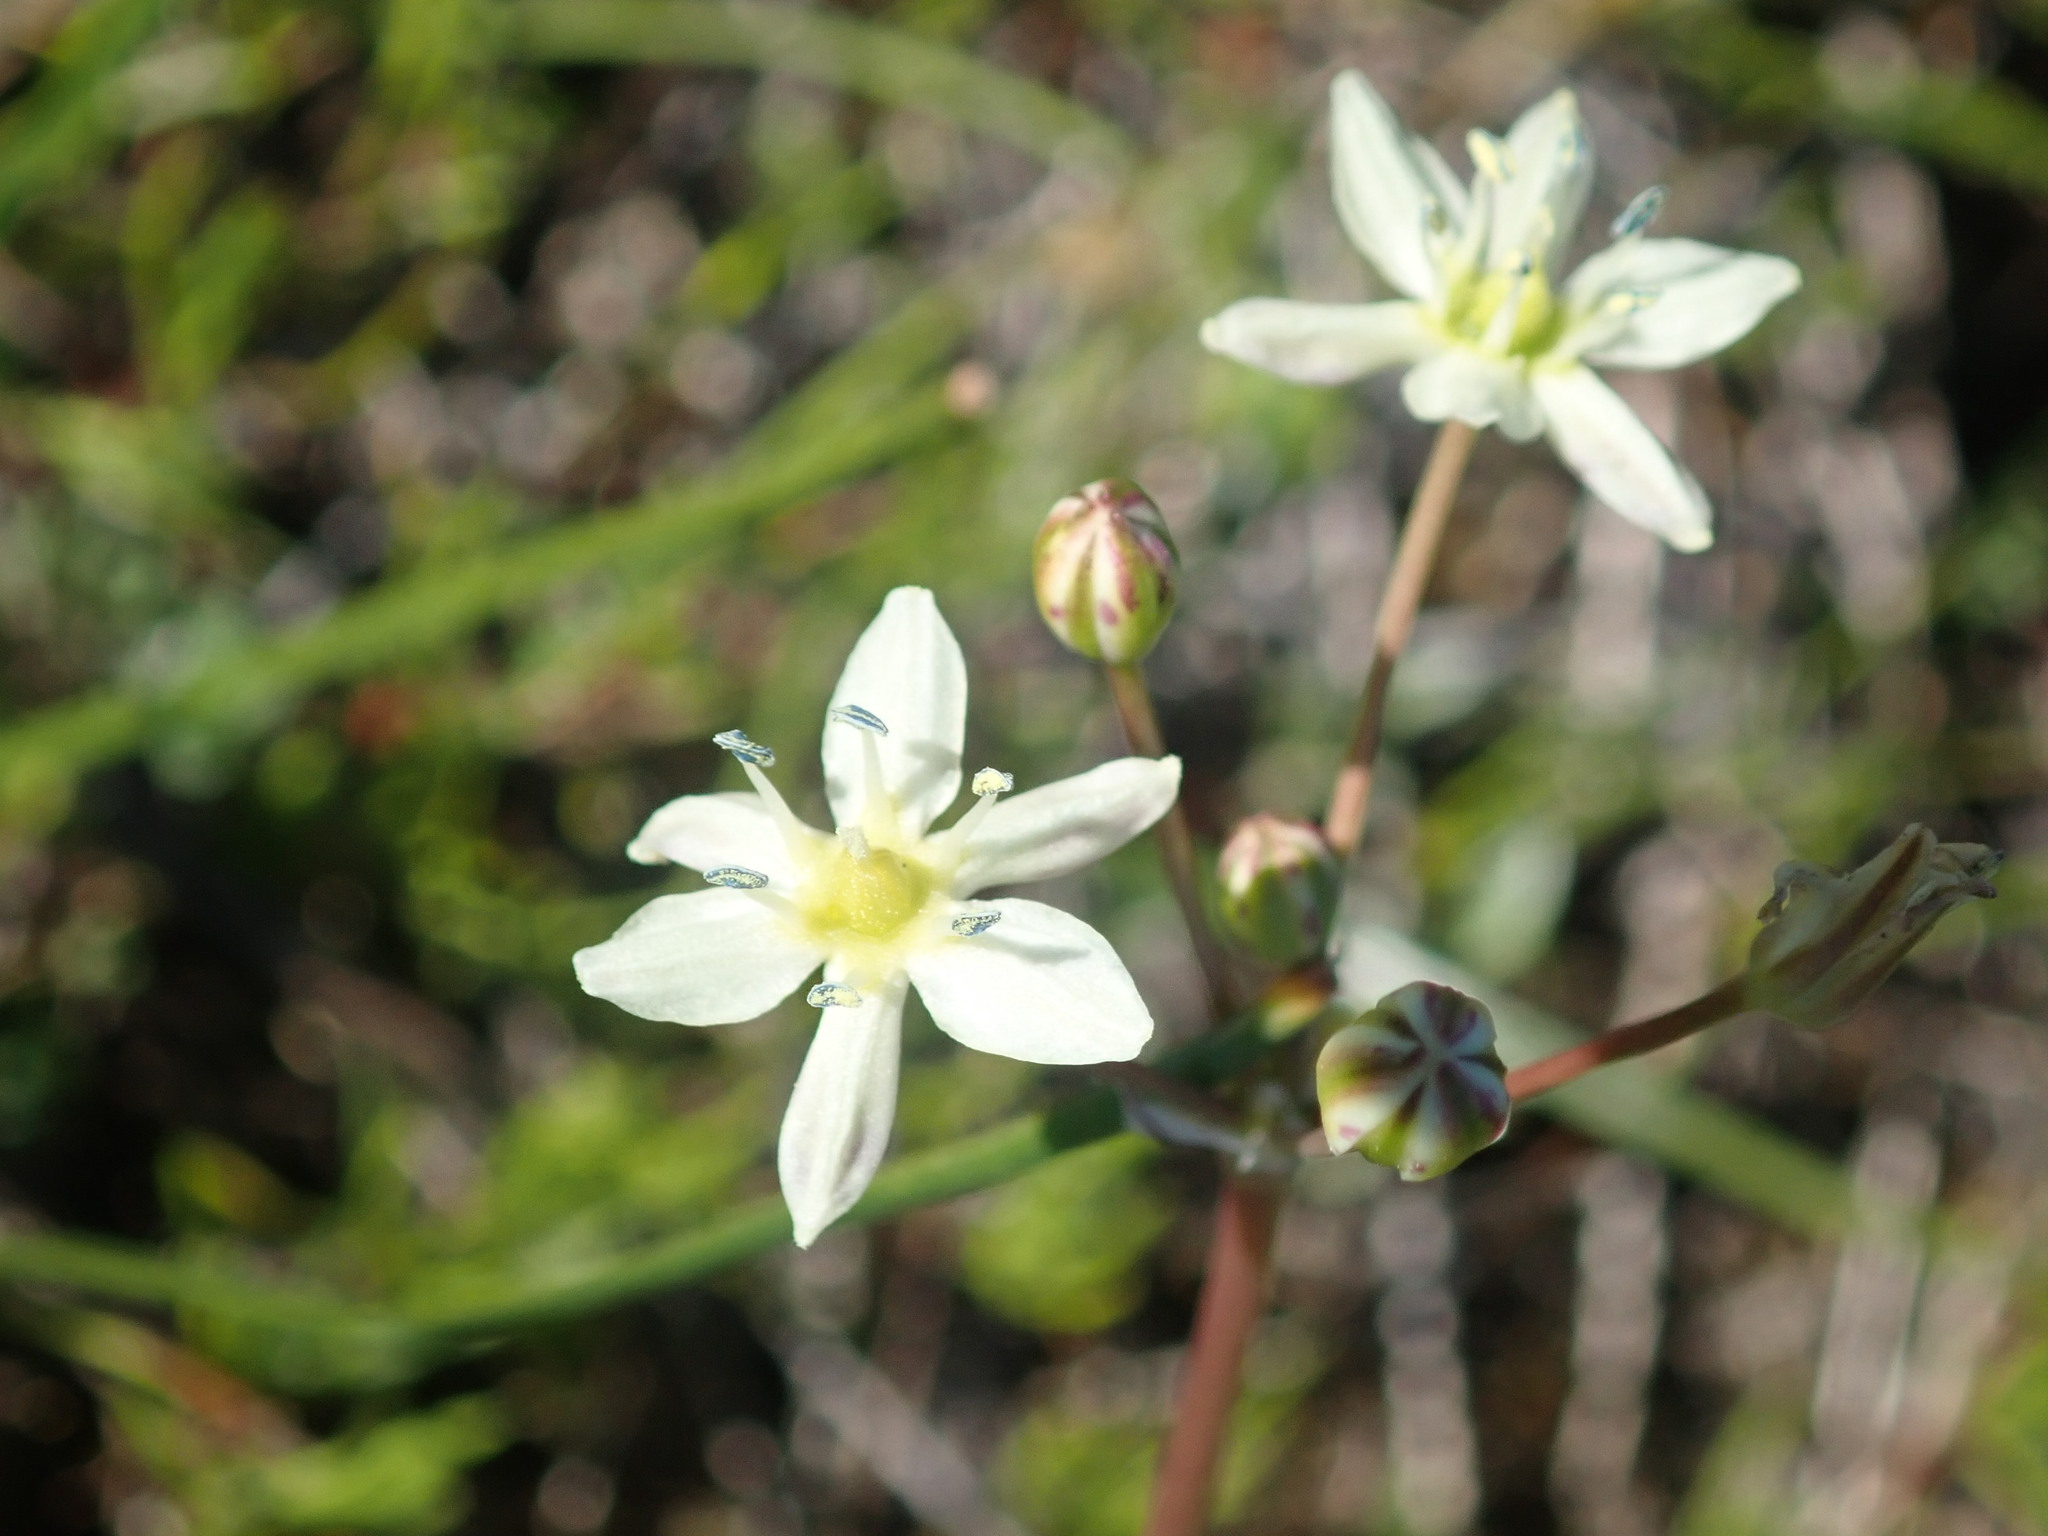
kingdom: Plantae
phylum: Tracheophyta
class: Liliopsida
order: Asparagales
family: Asparagaceae
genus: Muilla
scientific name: Muilla maritima
